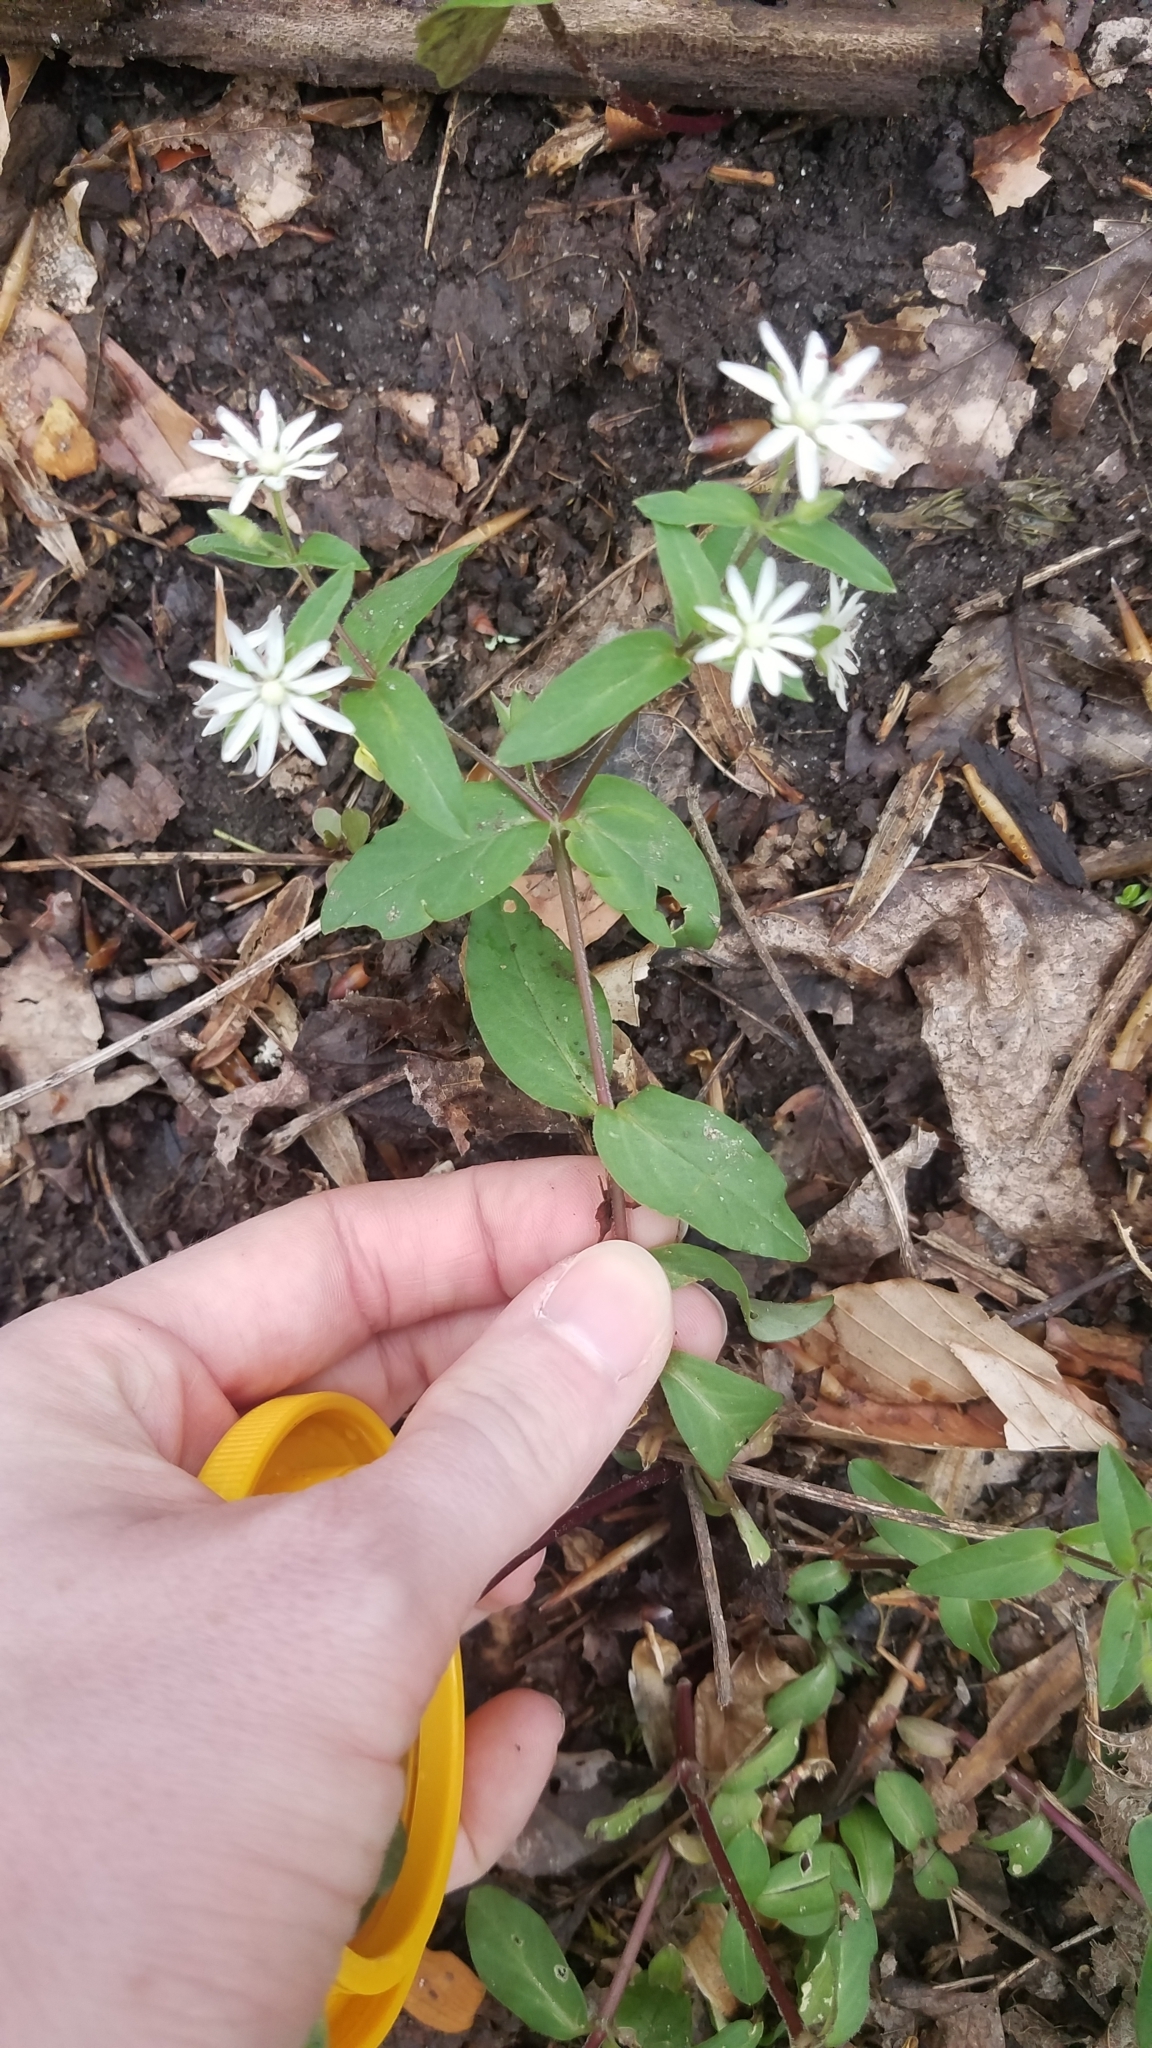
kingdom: Plantae
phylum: Tracheophyta
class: Magnoliopsida
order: Caryophyllales
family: Caryophyllaceae
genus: Stellaria
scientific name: Stellaria pubera
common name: Star chickweed
